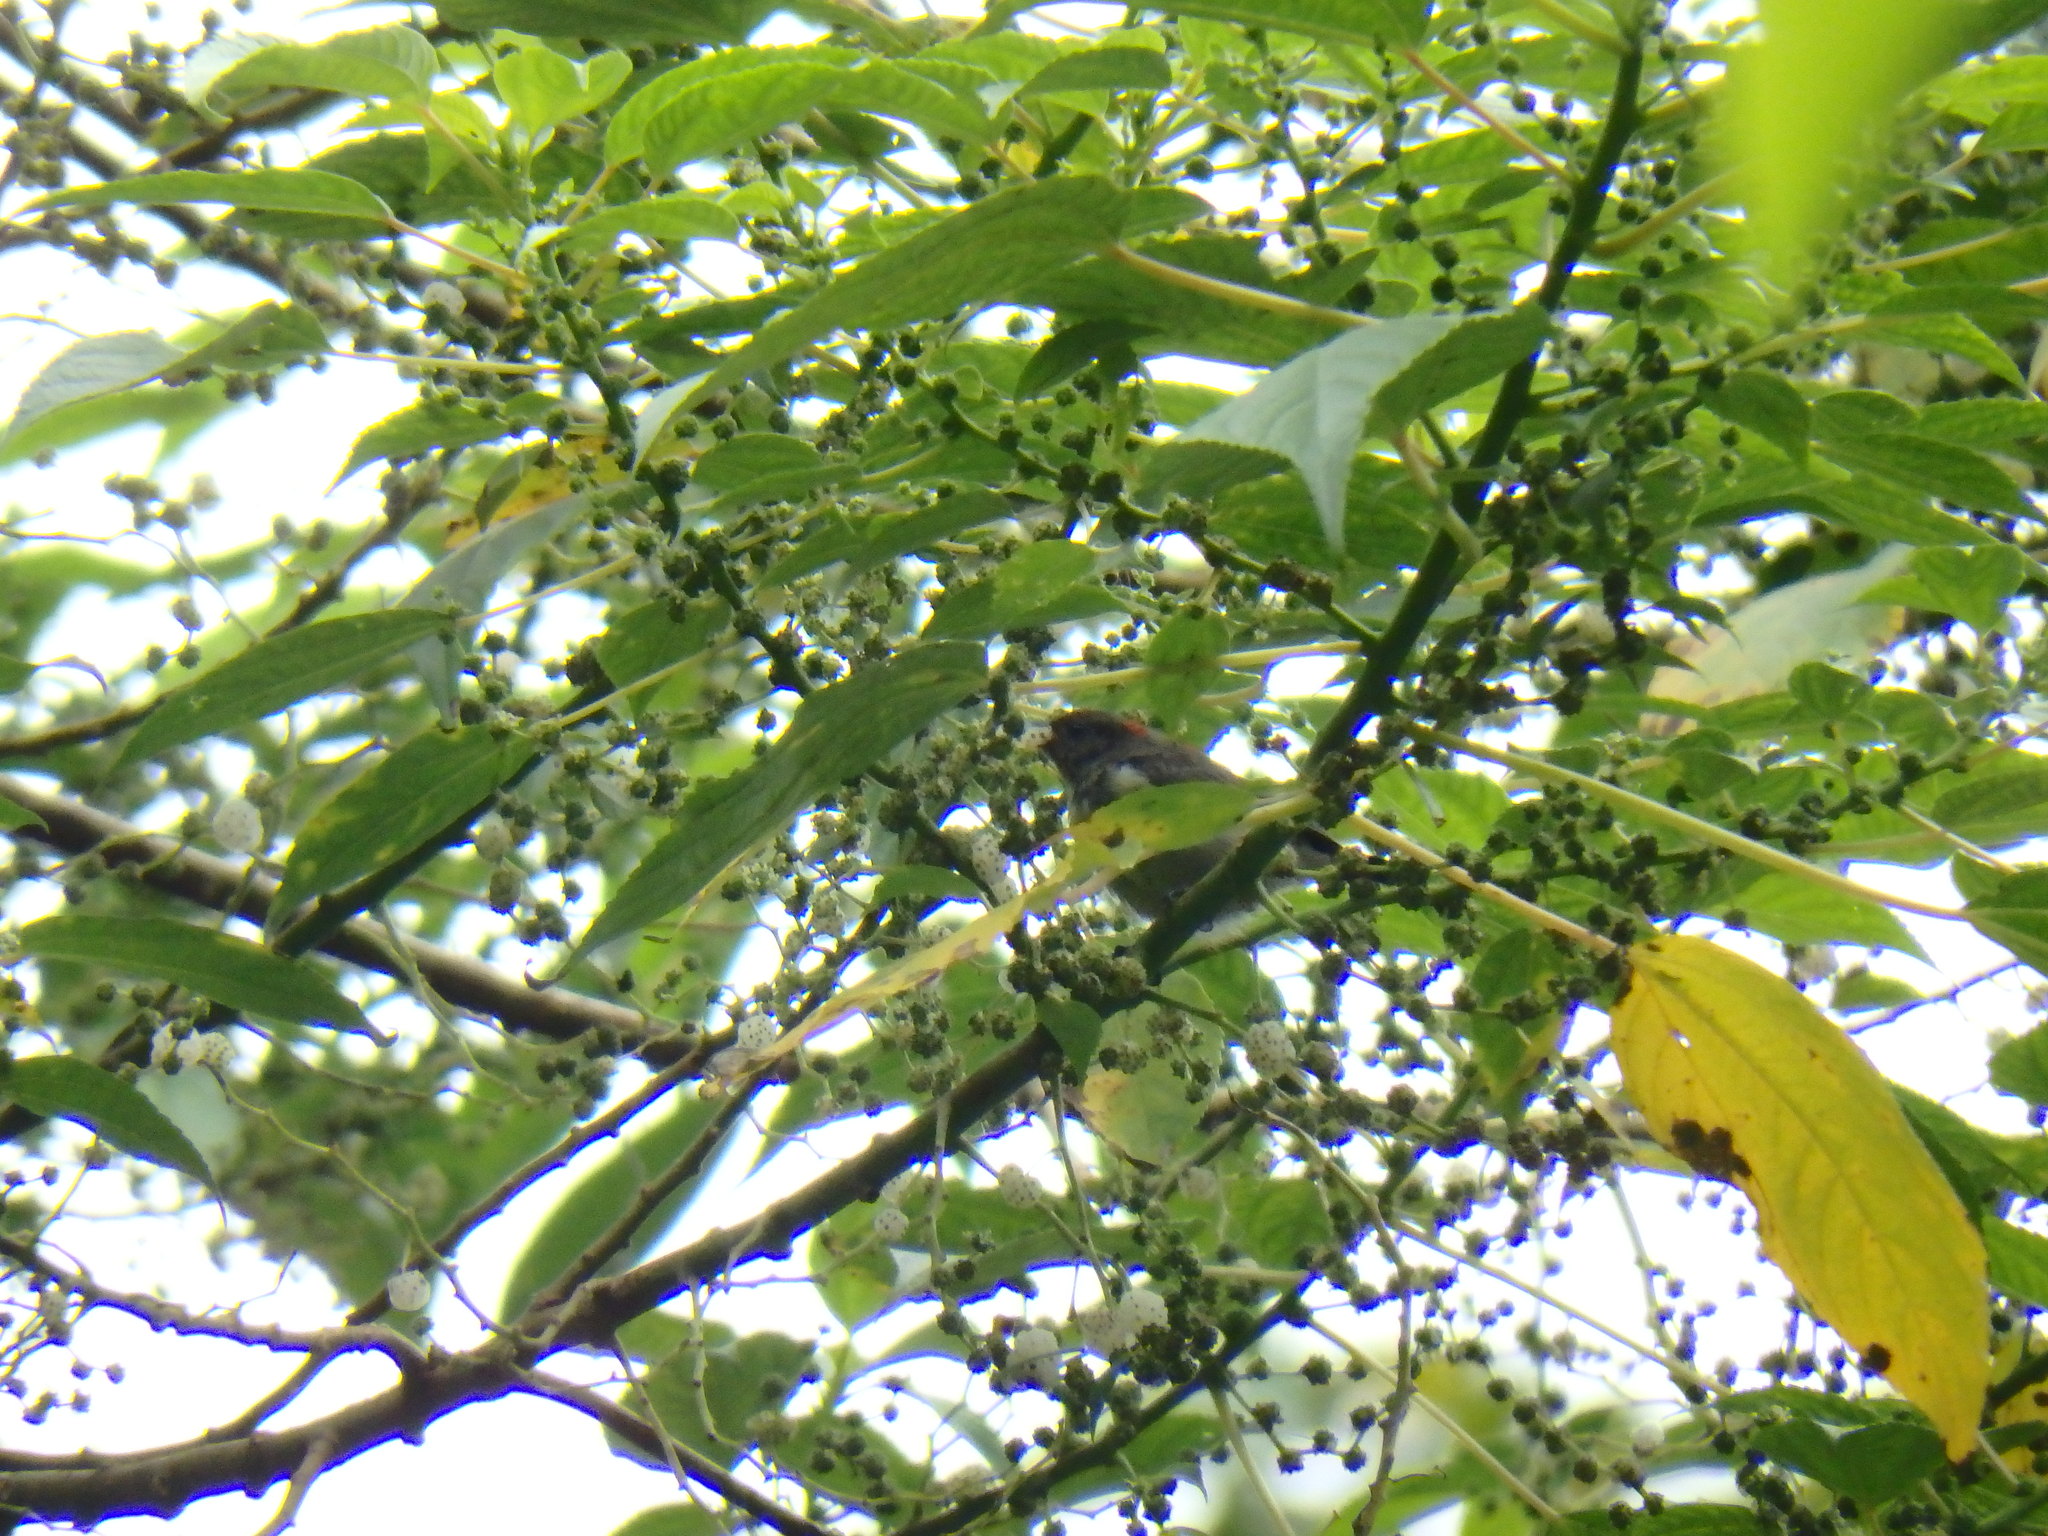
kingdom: Animalia
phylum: Chordata
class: Aves
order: Passeriformes
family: Dicaeidae
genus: Dicaeum
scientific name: Dicaeum cruentatum
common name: Scarlet-backed flowerpecker
